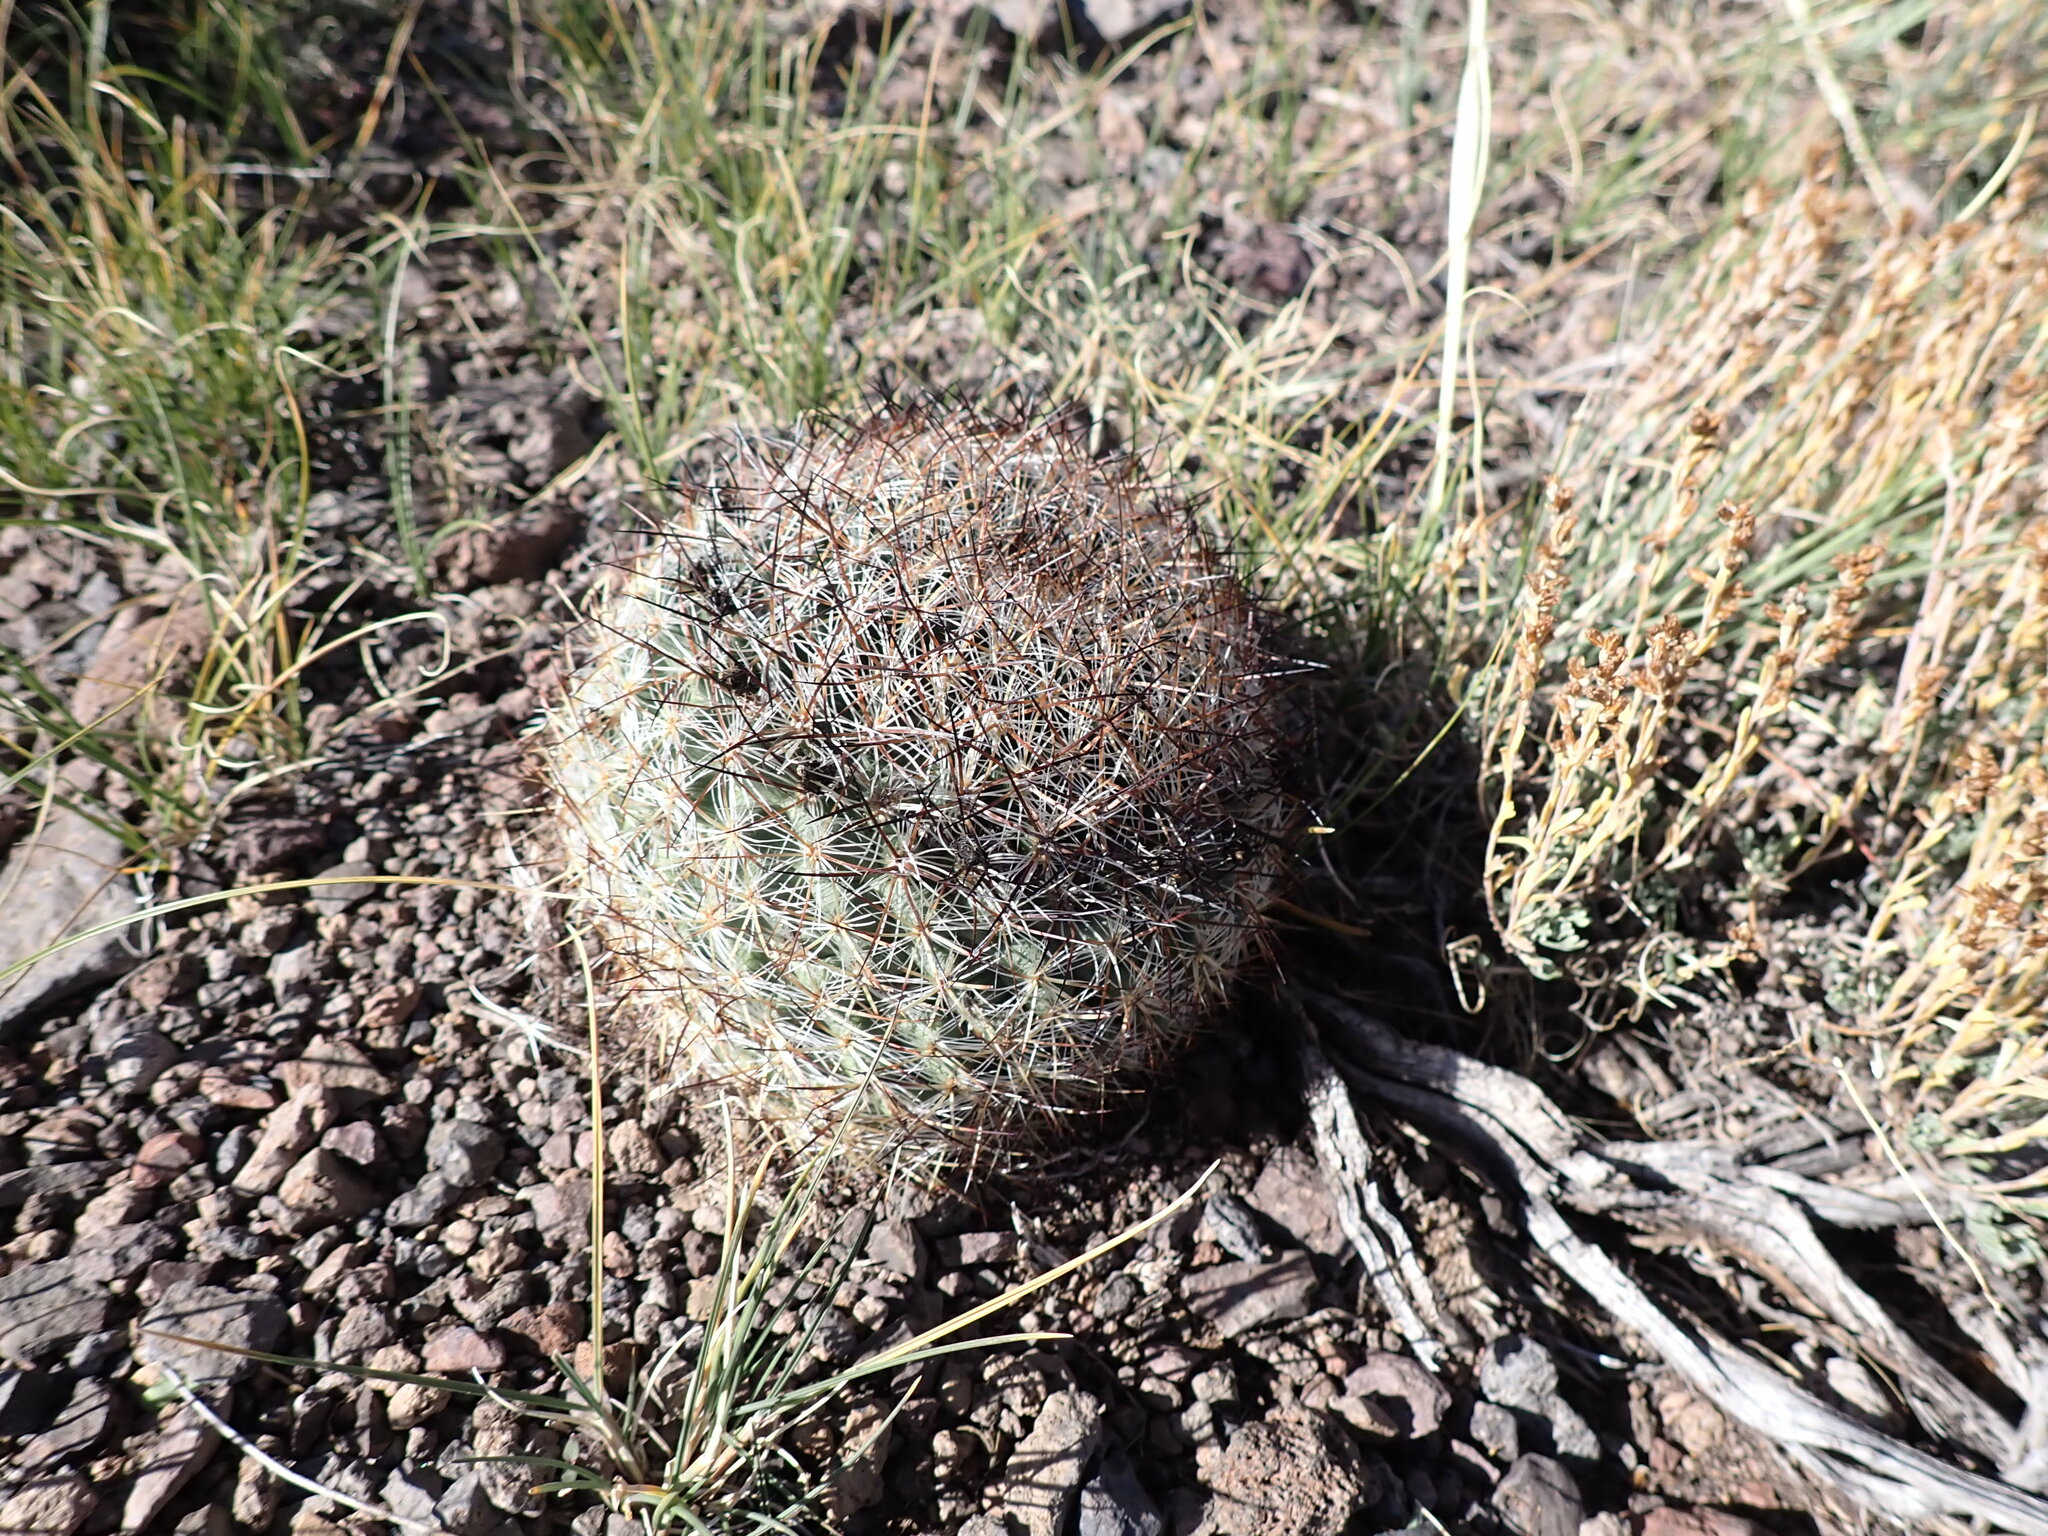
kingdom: Plantae
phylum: Tracheophyta
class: Magnoliopsida
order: Caryophyllales
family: Cactaceae
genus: Pediocactus
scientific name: Pediocactus simpsonii
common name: Simpson's hedgehog cactus
